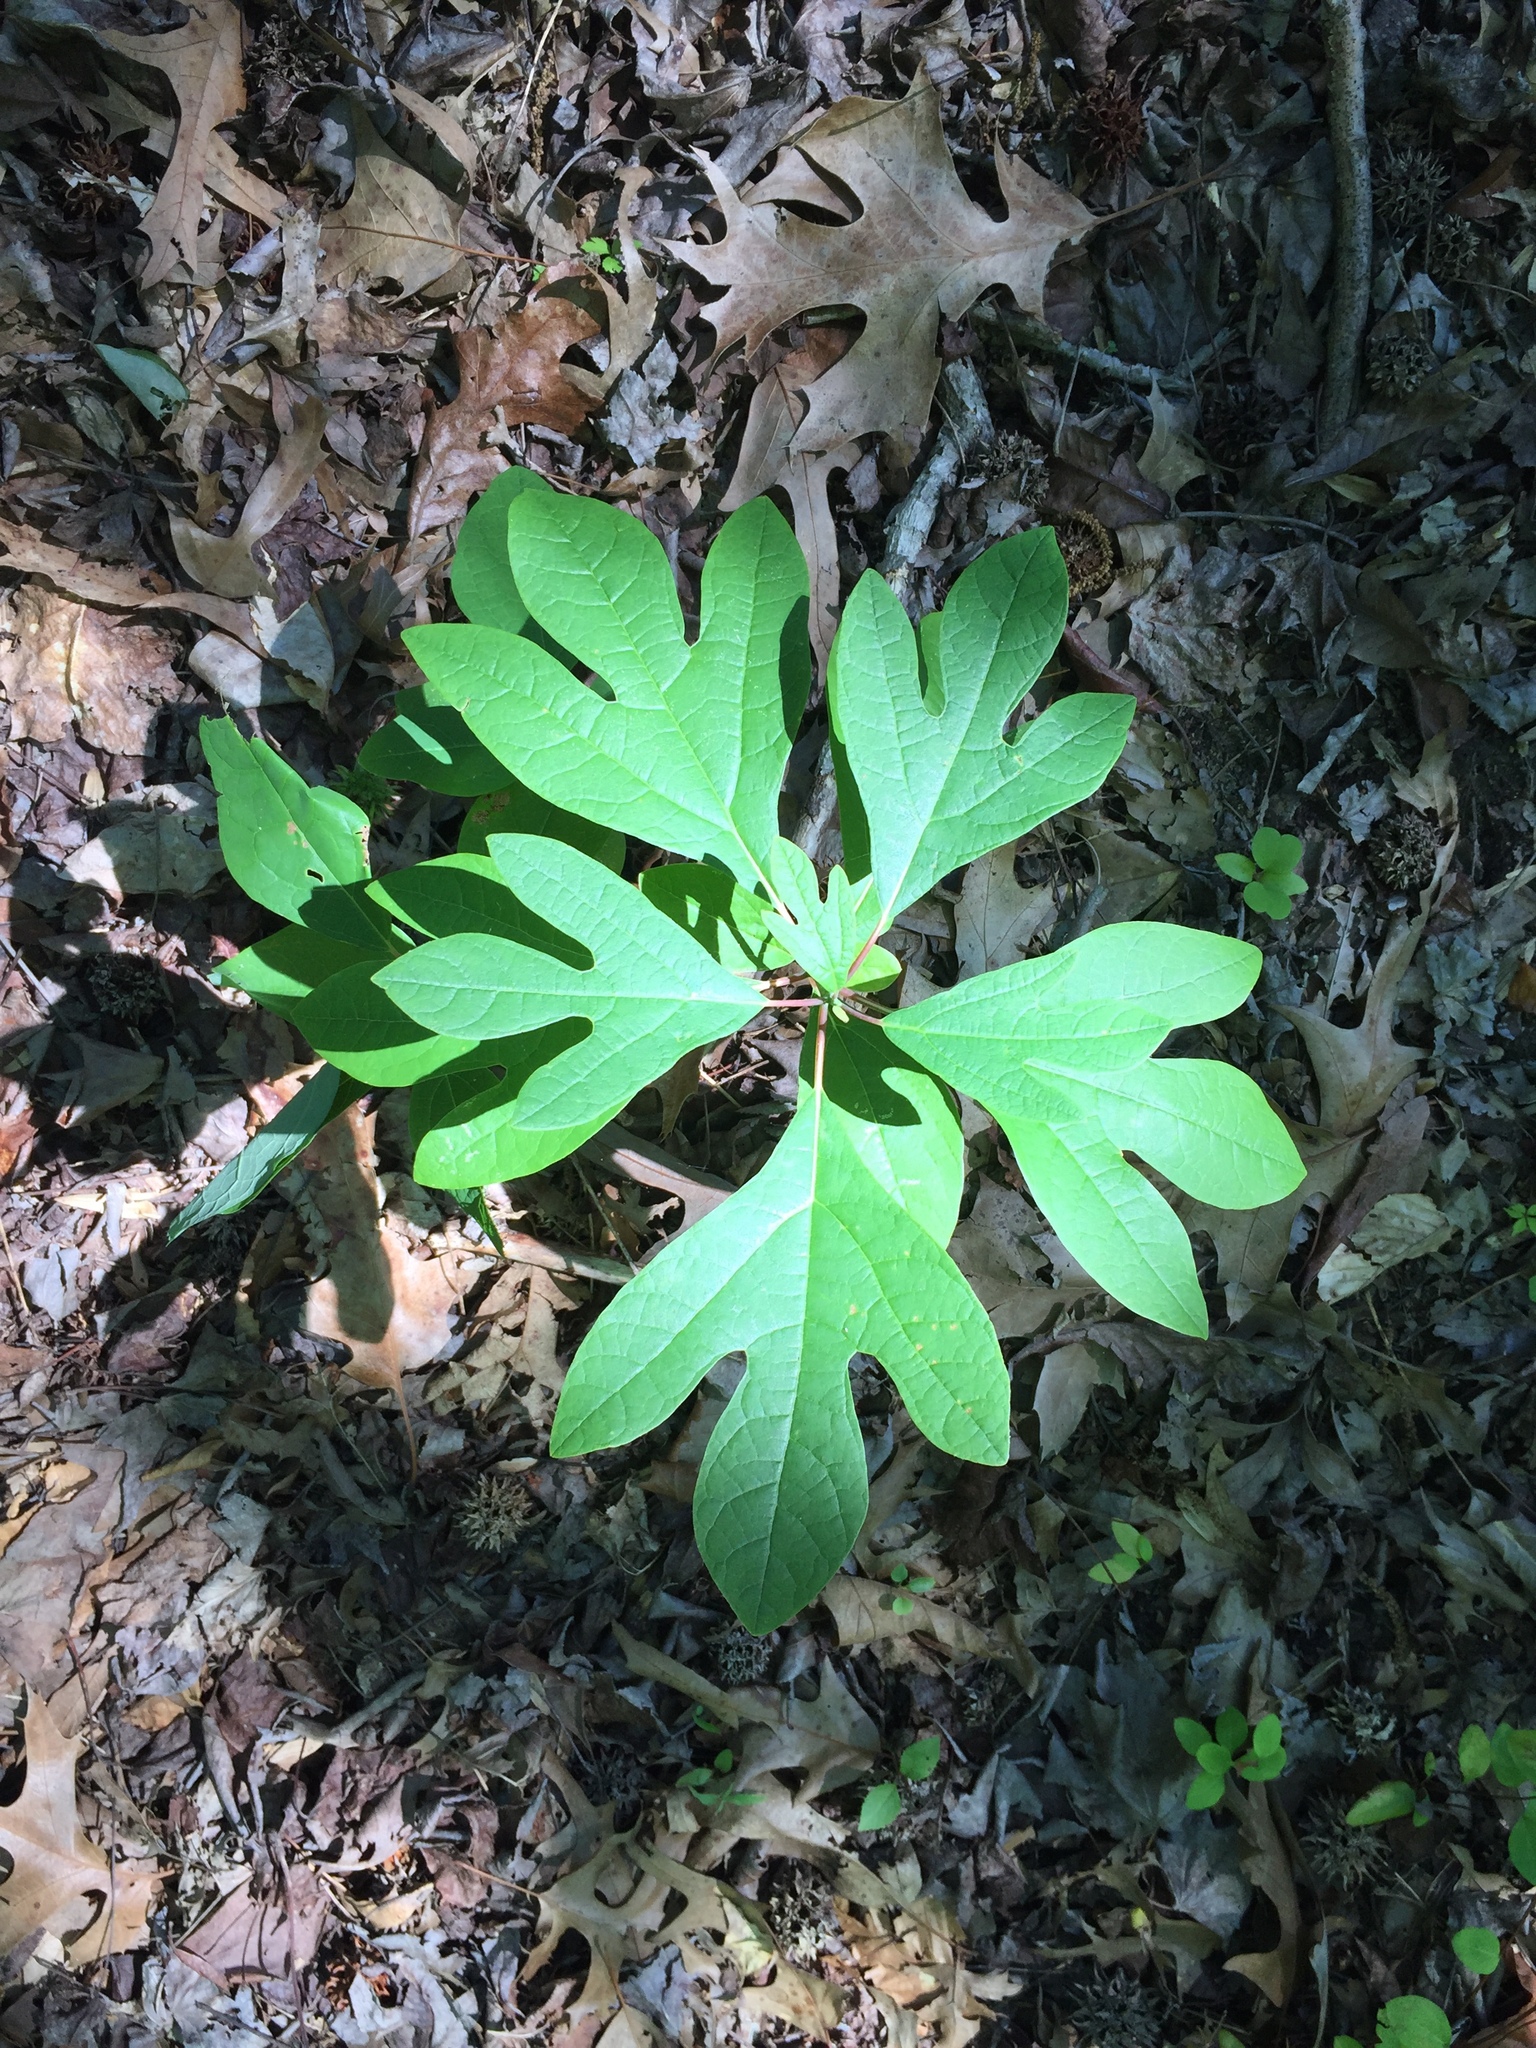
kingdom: Plantae
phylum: Tracheophyta
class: Magnoliopsida
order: Laurales
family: Lauraceae
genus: Sassafras
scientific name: Sassafras albidum
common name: Sassafras
